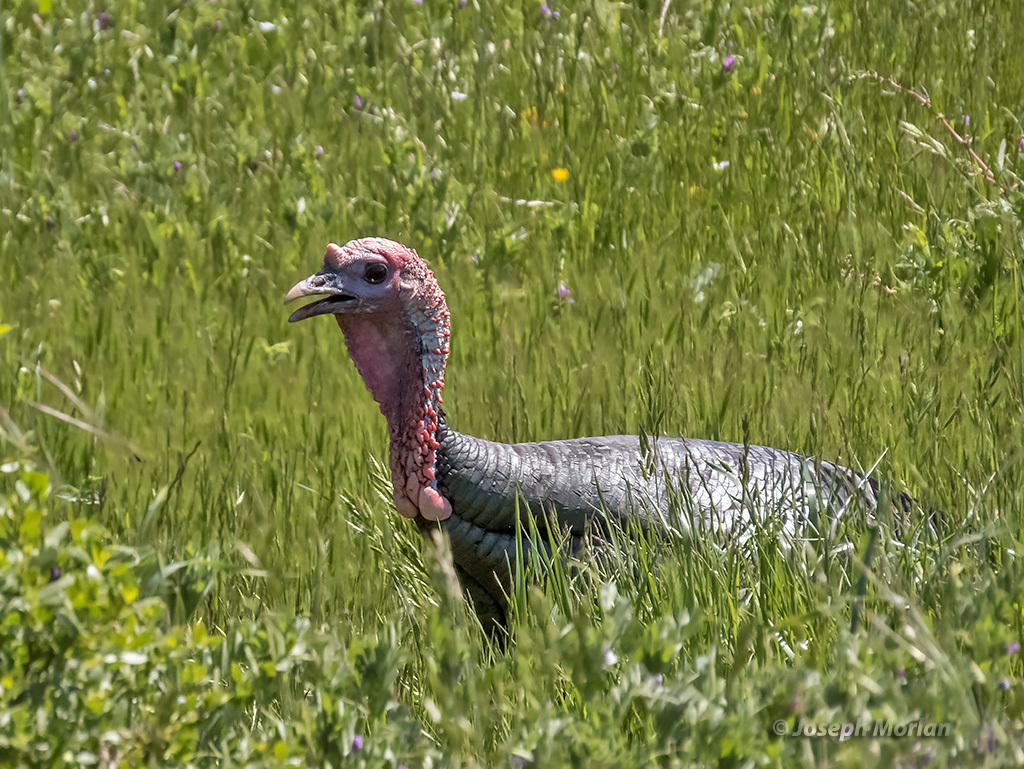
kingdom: Animalia
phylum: Chordata
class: Aves
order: Galliformes
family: Phasianidae
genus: Meleagris
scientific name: Meleagris gallopavo
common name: Wild turkey
